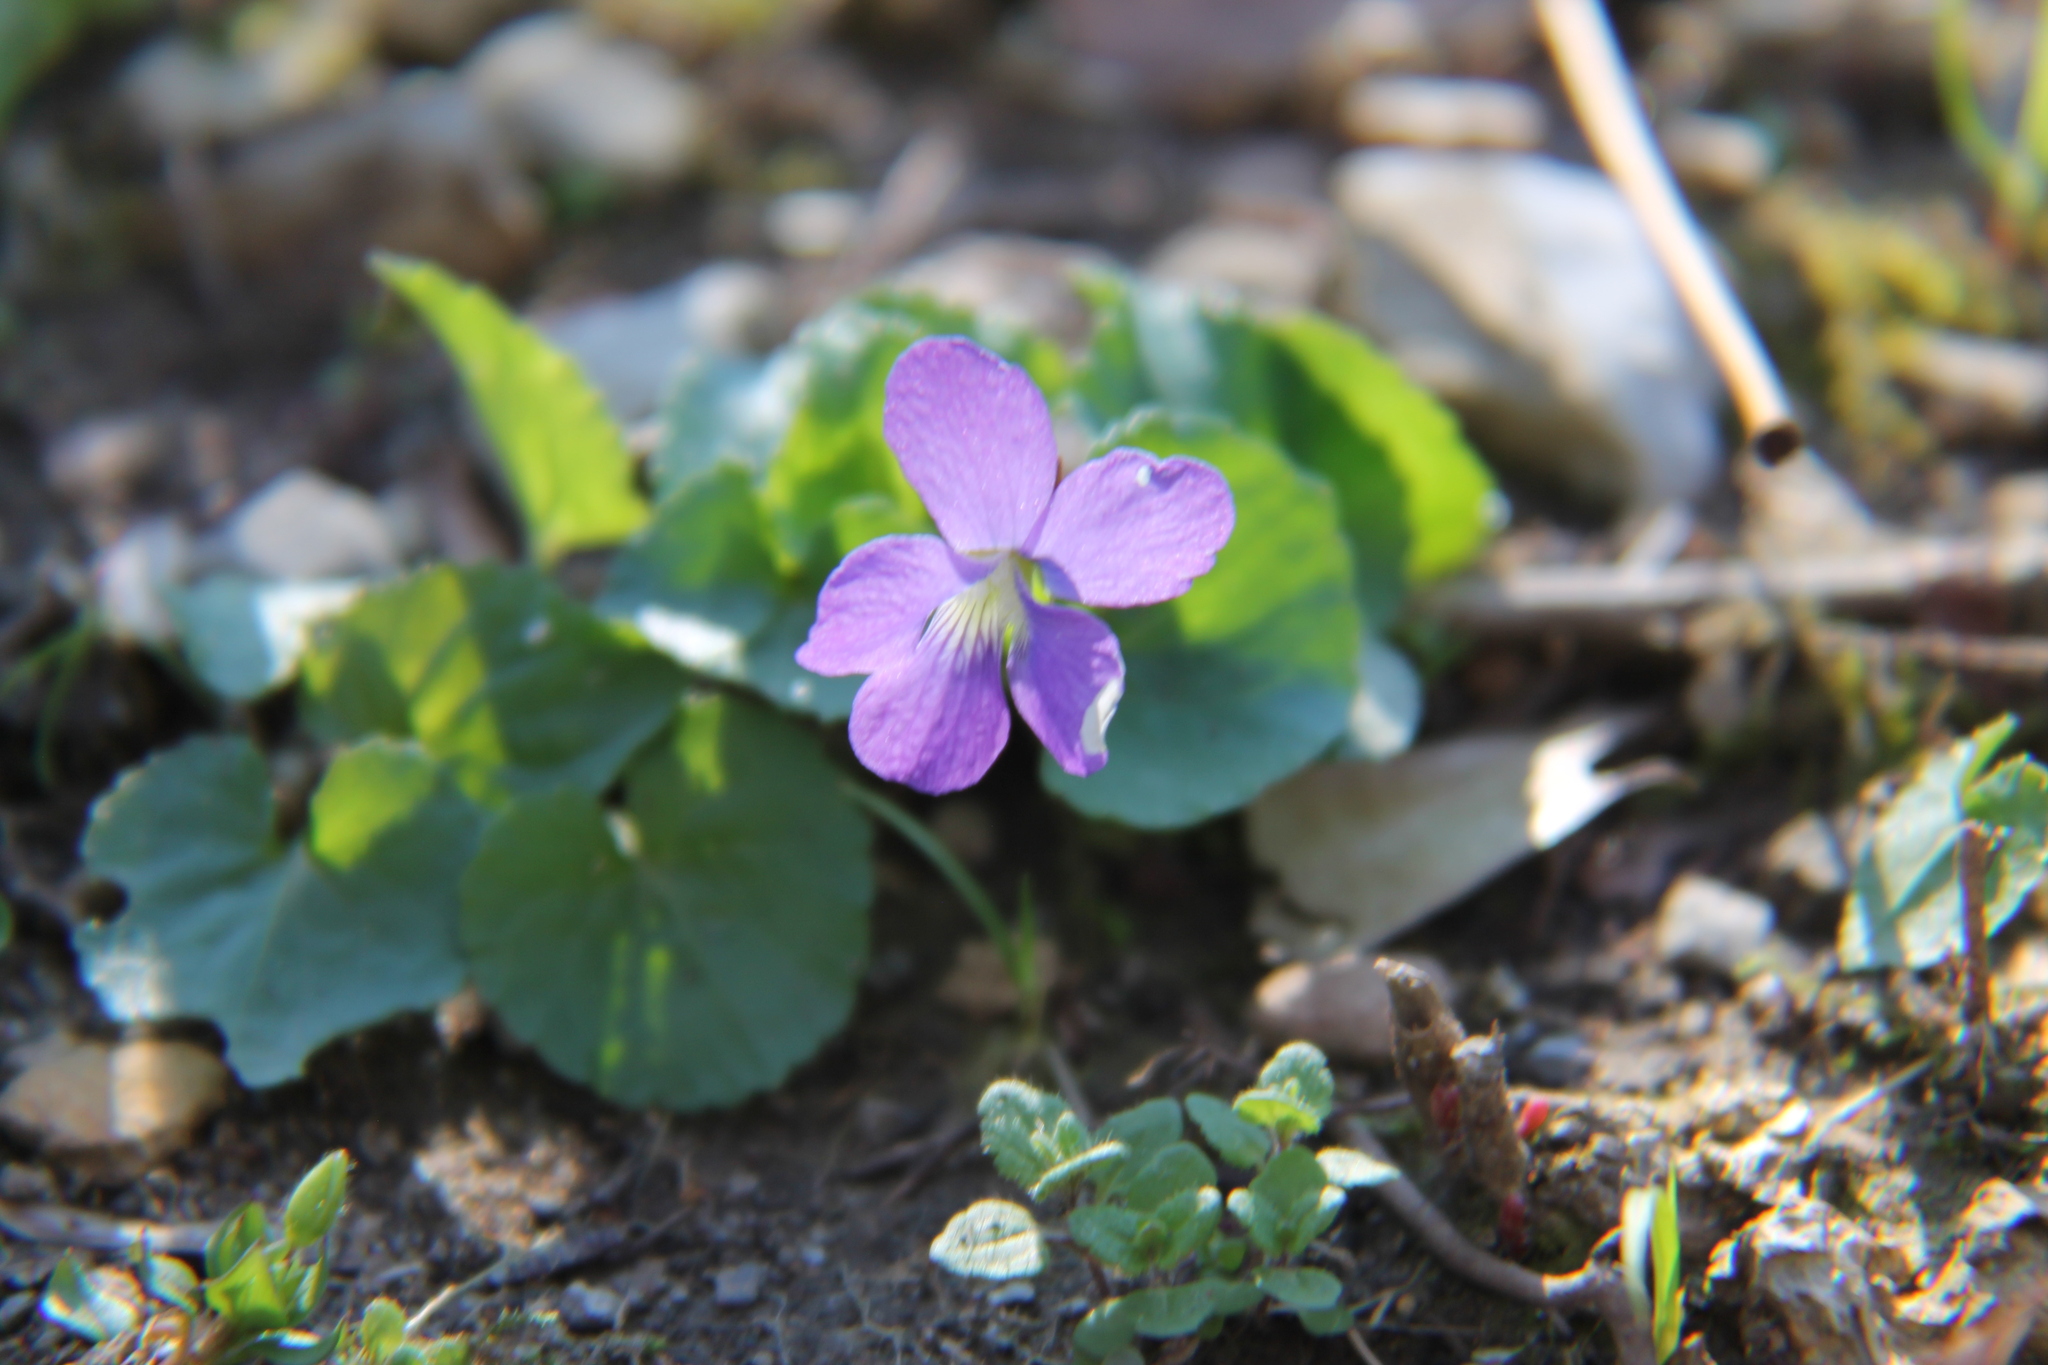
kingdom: Plantae
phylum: Tracheophyta
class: Magnoliopsida
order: Malpighiales
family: Violaceae
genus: Viola
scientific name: Viola sororia
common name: Dooryard violet
